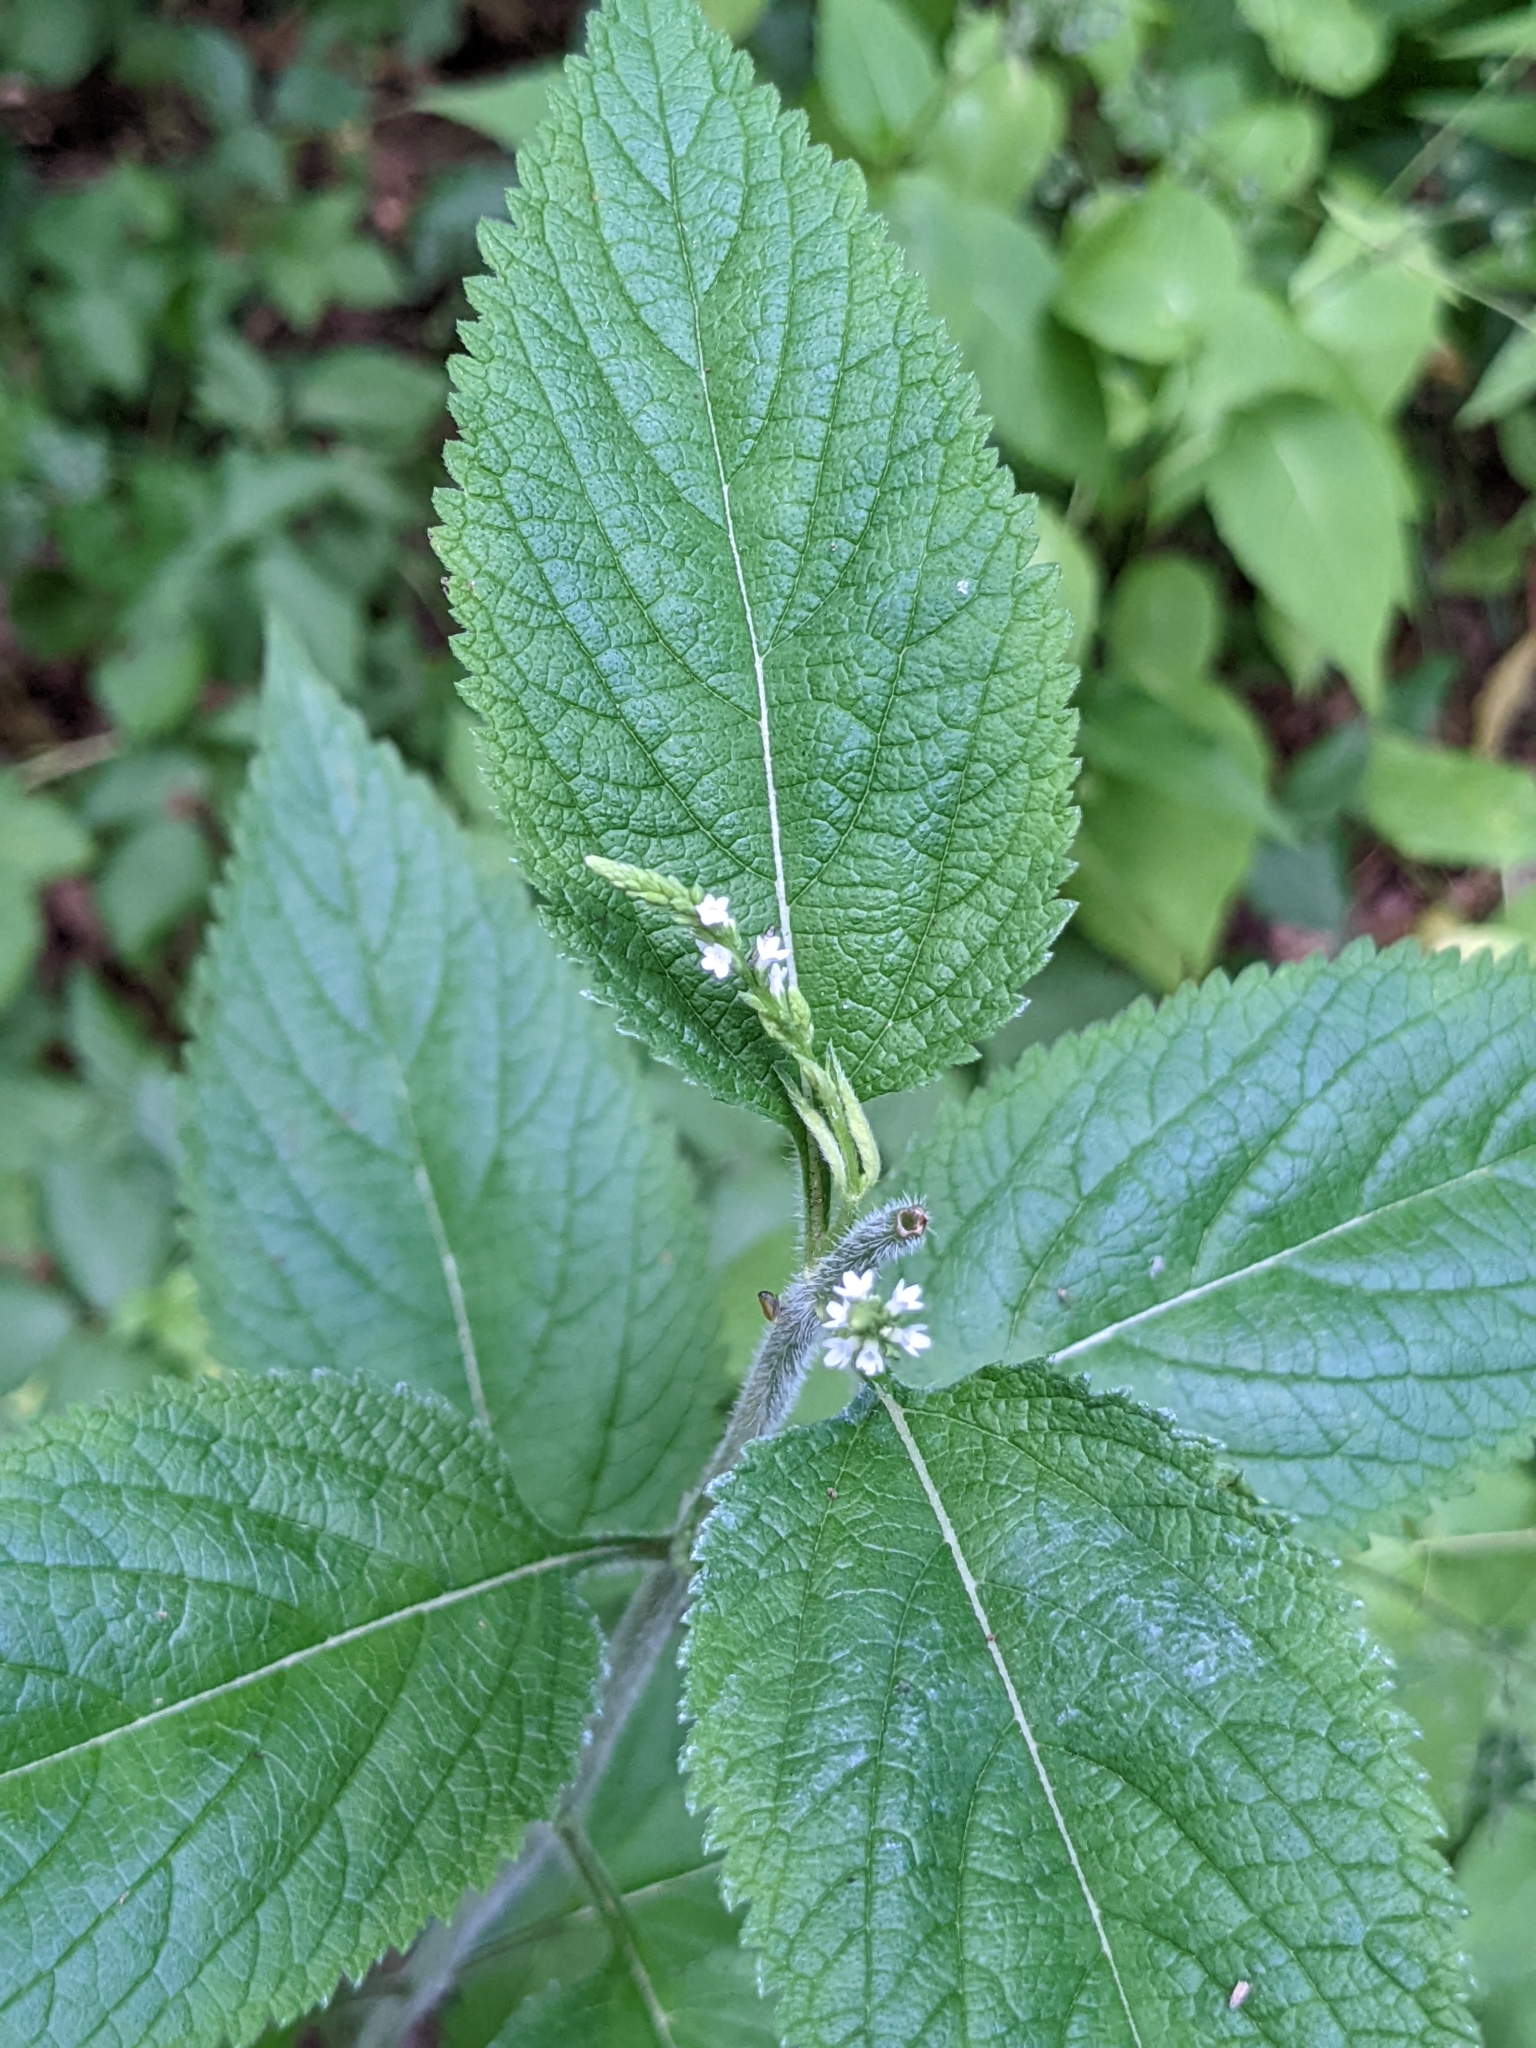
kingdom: Plantae
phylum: Tracheophyta
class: Magnoliopsida
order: Lamiales
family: Verbenaceae
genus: Verbena
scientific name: Verbena urticifolia
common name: Nettle-leaved vervain
